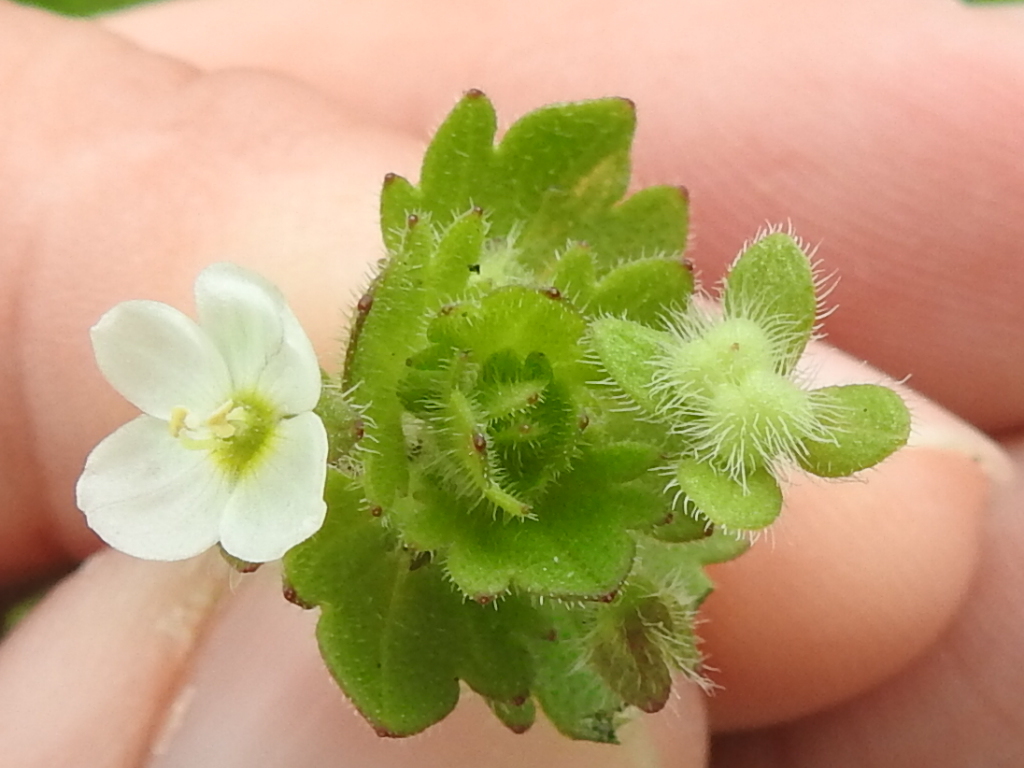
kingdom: Plantae
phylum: Tracheophyta
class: Magnoliopsida
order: Lamiales
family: Plantaginaceae
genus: Veronica
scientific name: Veronica cymbalaria
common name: Pale speedwell
